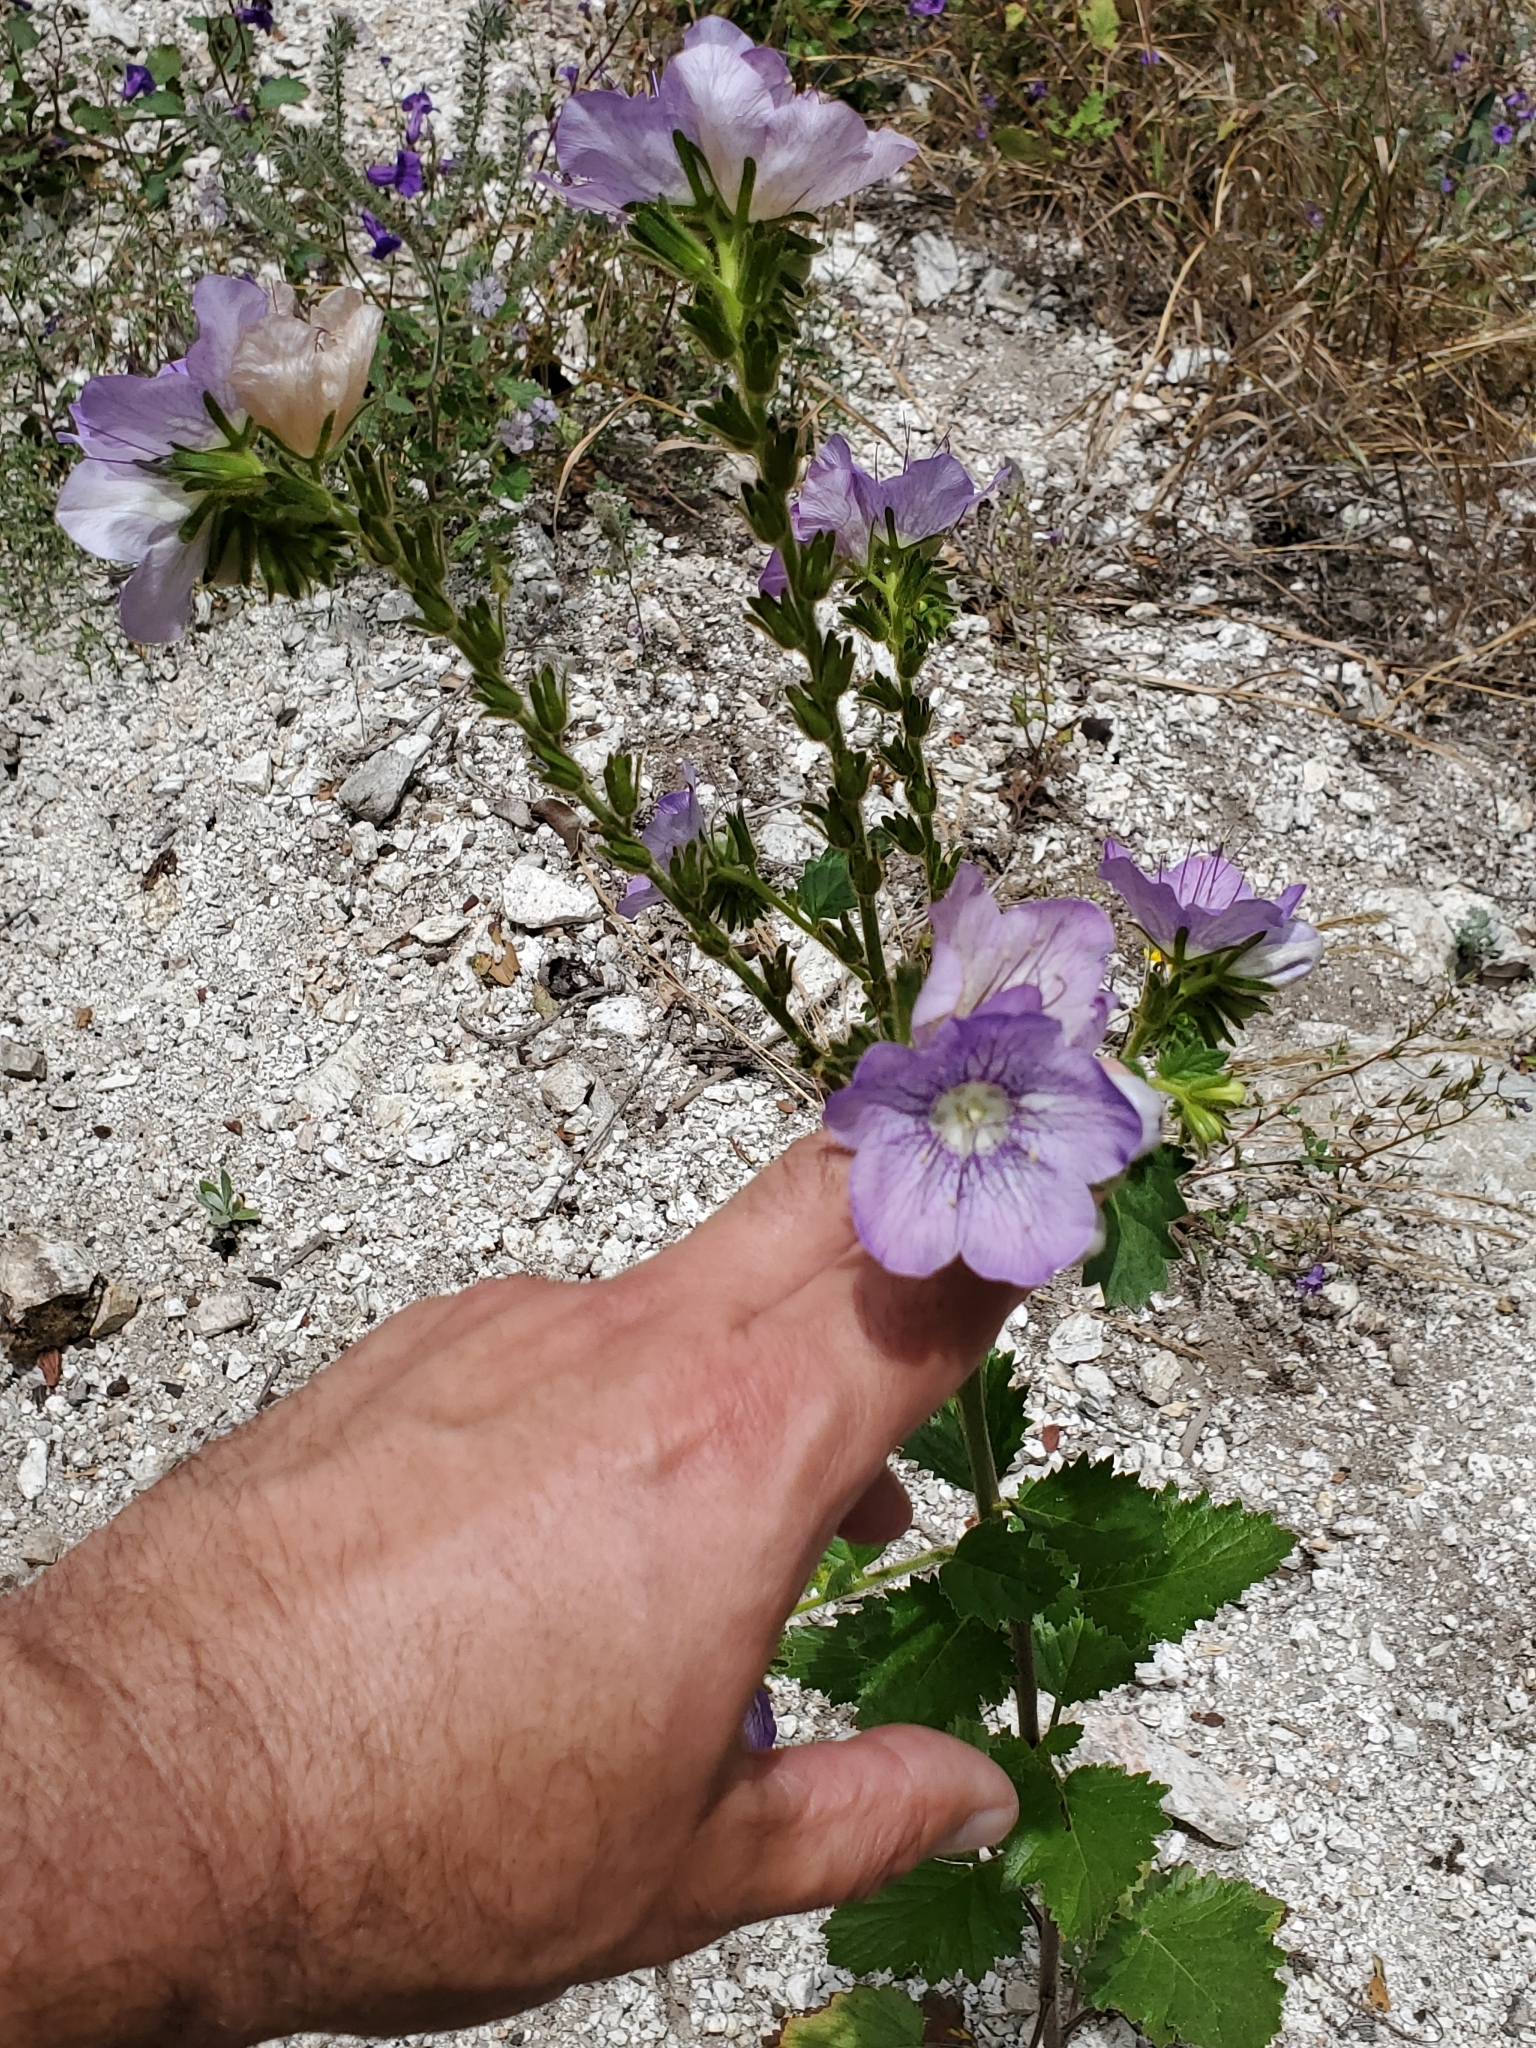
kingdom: Plantae
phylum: Tracheophyta
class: Magnoliopsida
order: Boraginales
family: Hydrophyllaceae
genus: Phacelia
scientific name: Phacelia grandiflora
